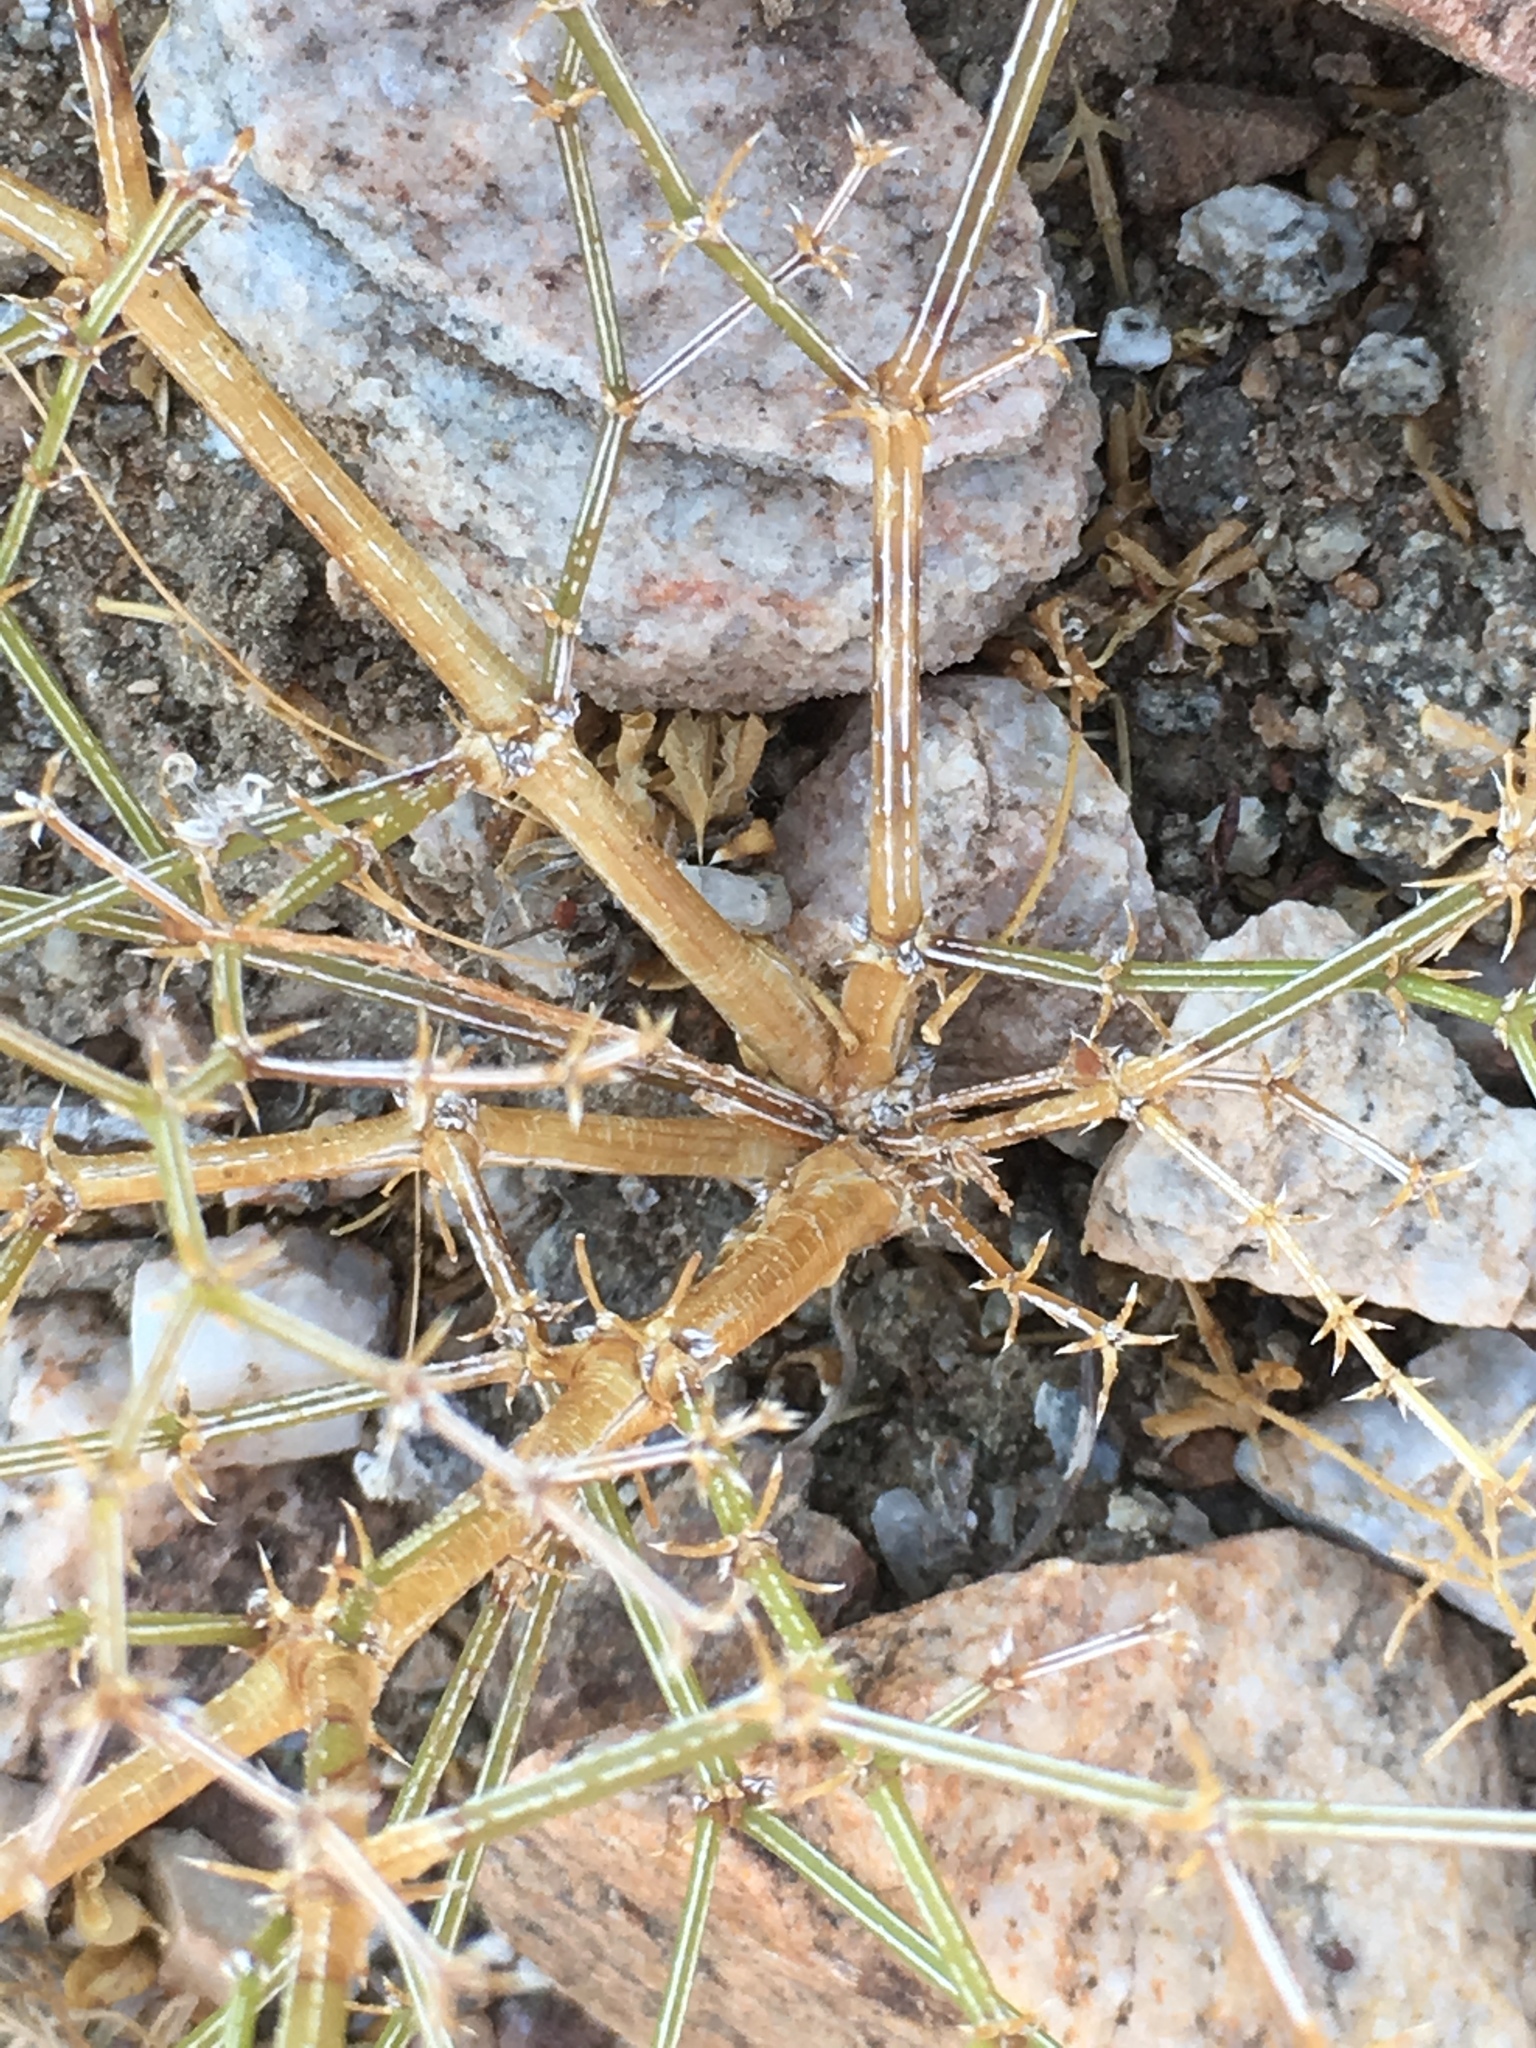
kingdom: Plantae
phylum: Tracheophyta
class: Magnoliopsida
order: Zygophyllales
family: Zygophyllaceae
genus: Fagonia
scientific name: Fagonia laevis
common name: California fagonbush
